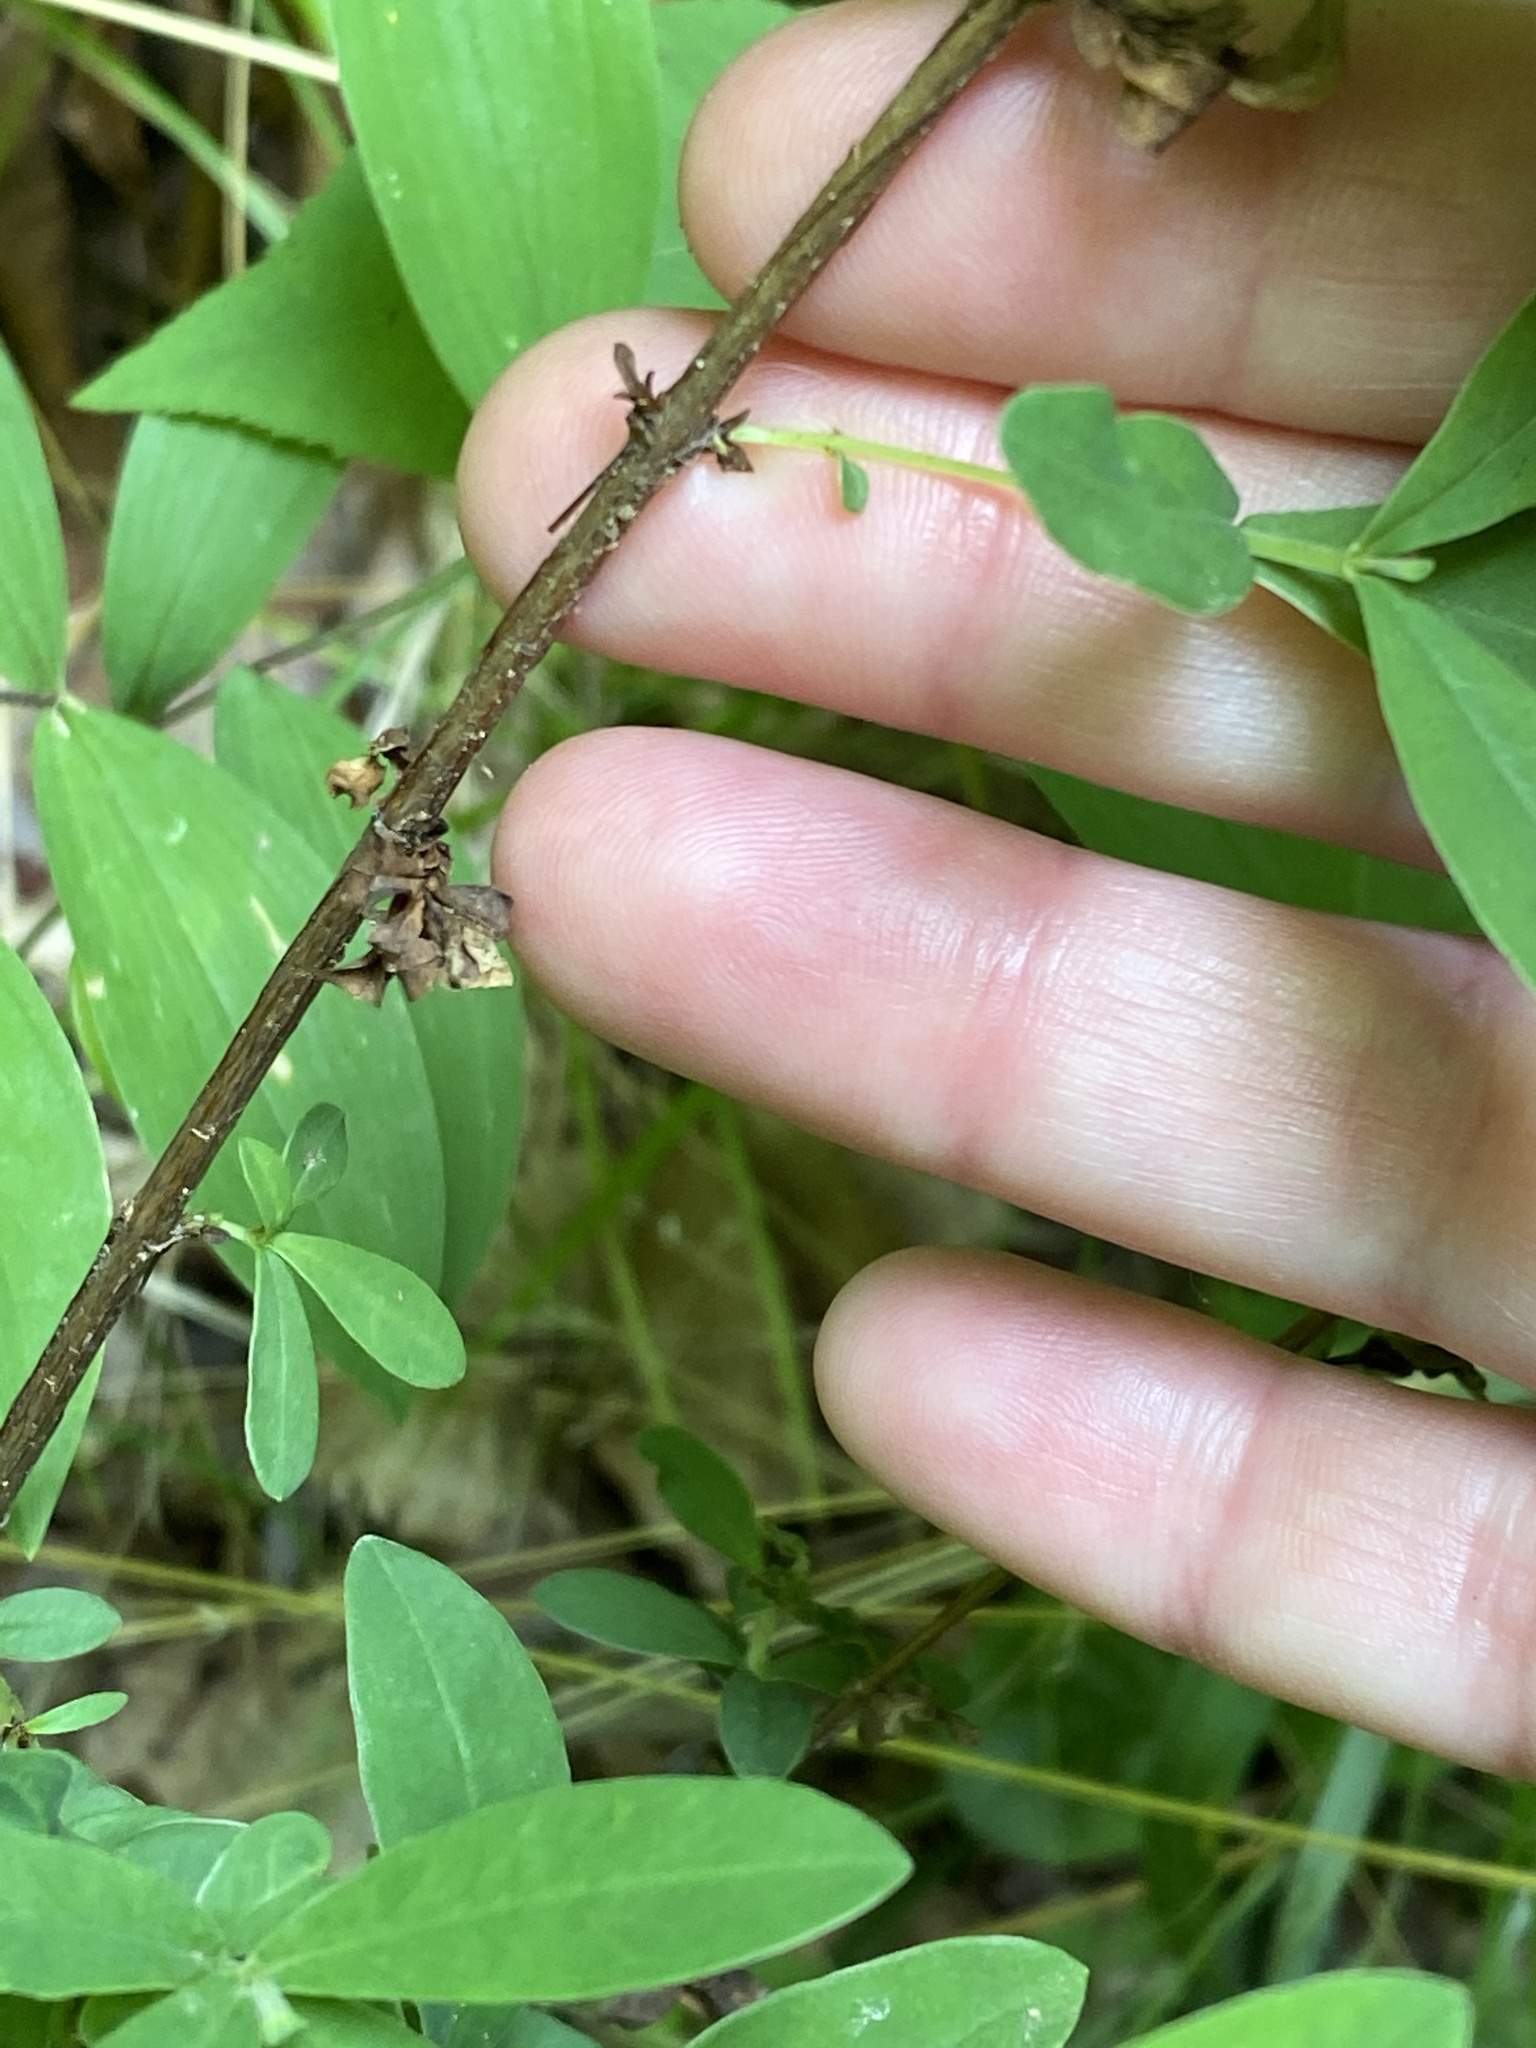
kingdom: Plantae
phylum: Tracheophyta
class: Magnoliopsida
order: Malpighiales
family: Hypericaceae
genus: Hypericum
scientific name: Hypericum nudiflorum
